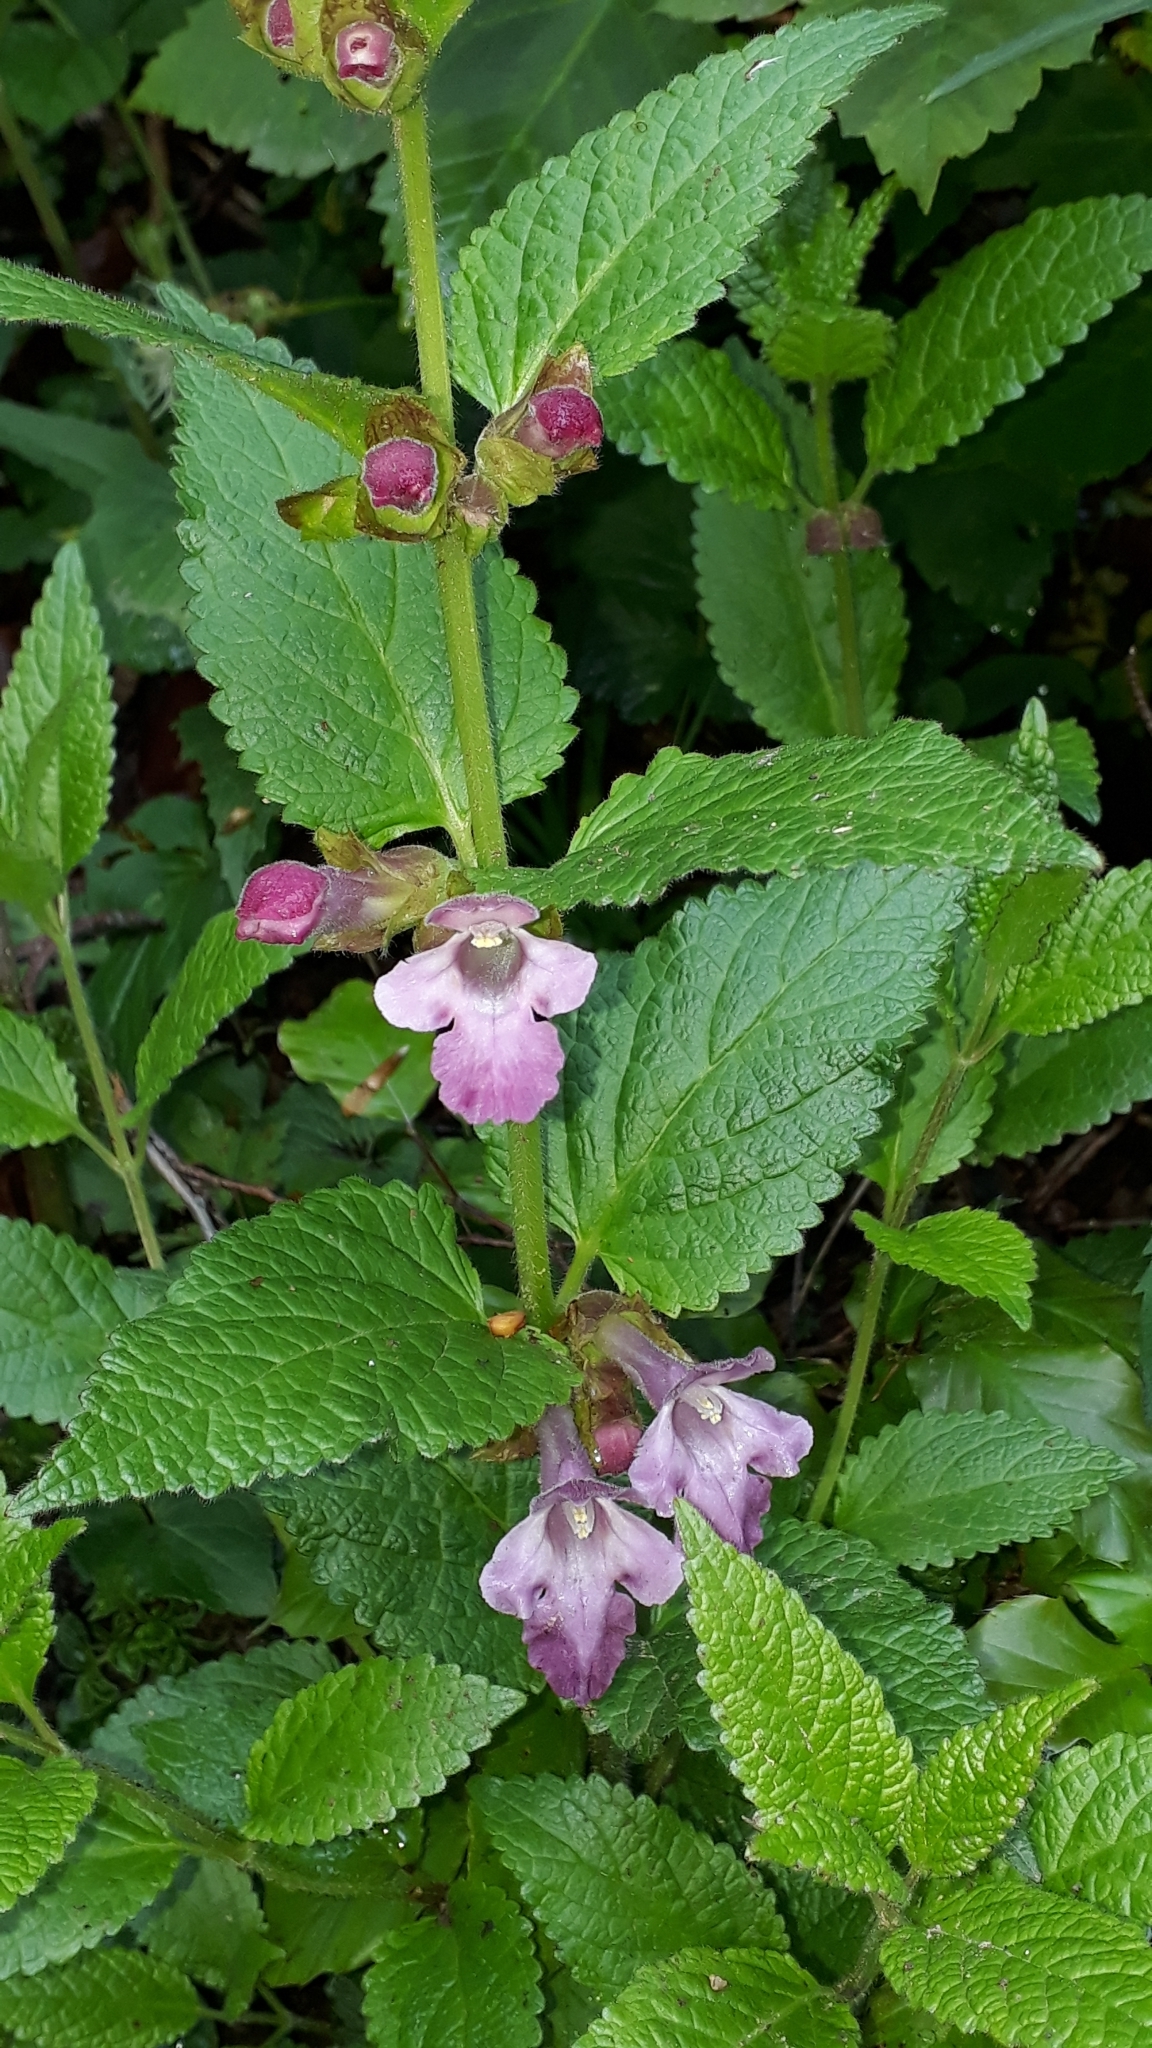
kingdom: Plantae
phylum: Tracheophyta
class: Magnoliopsida
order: Lamiales
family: Lamiaceae
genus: Melittis
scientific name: Melittis melissophyllum
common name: Bastard balm
